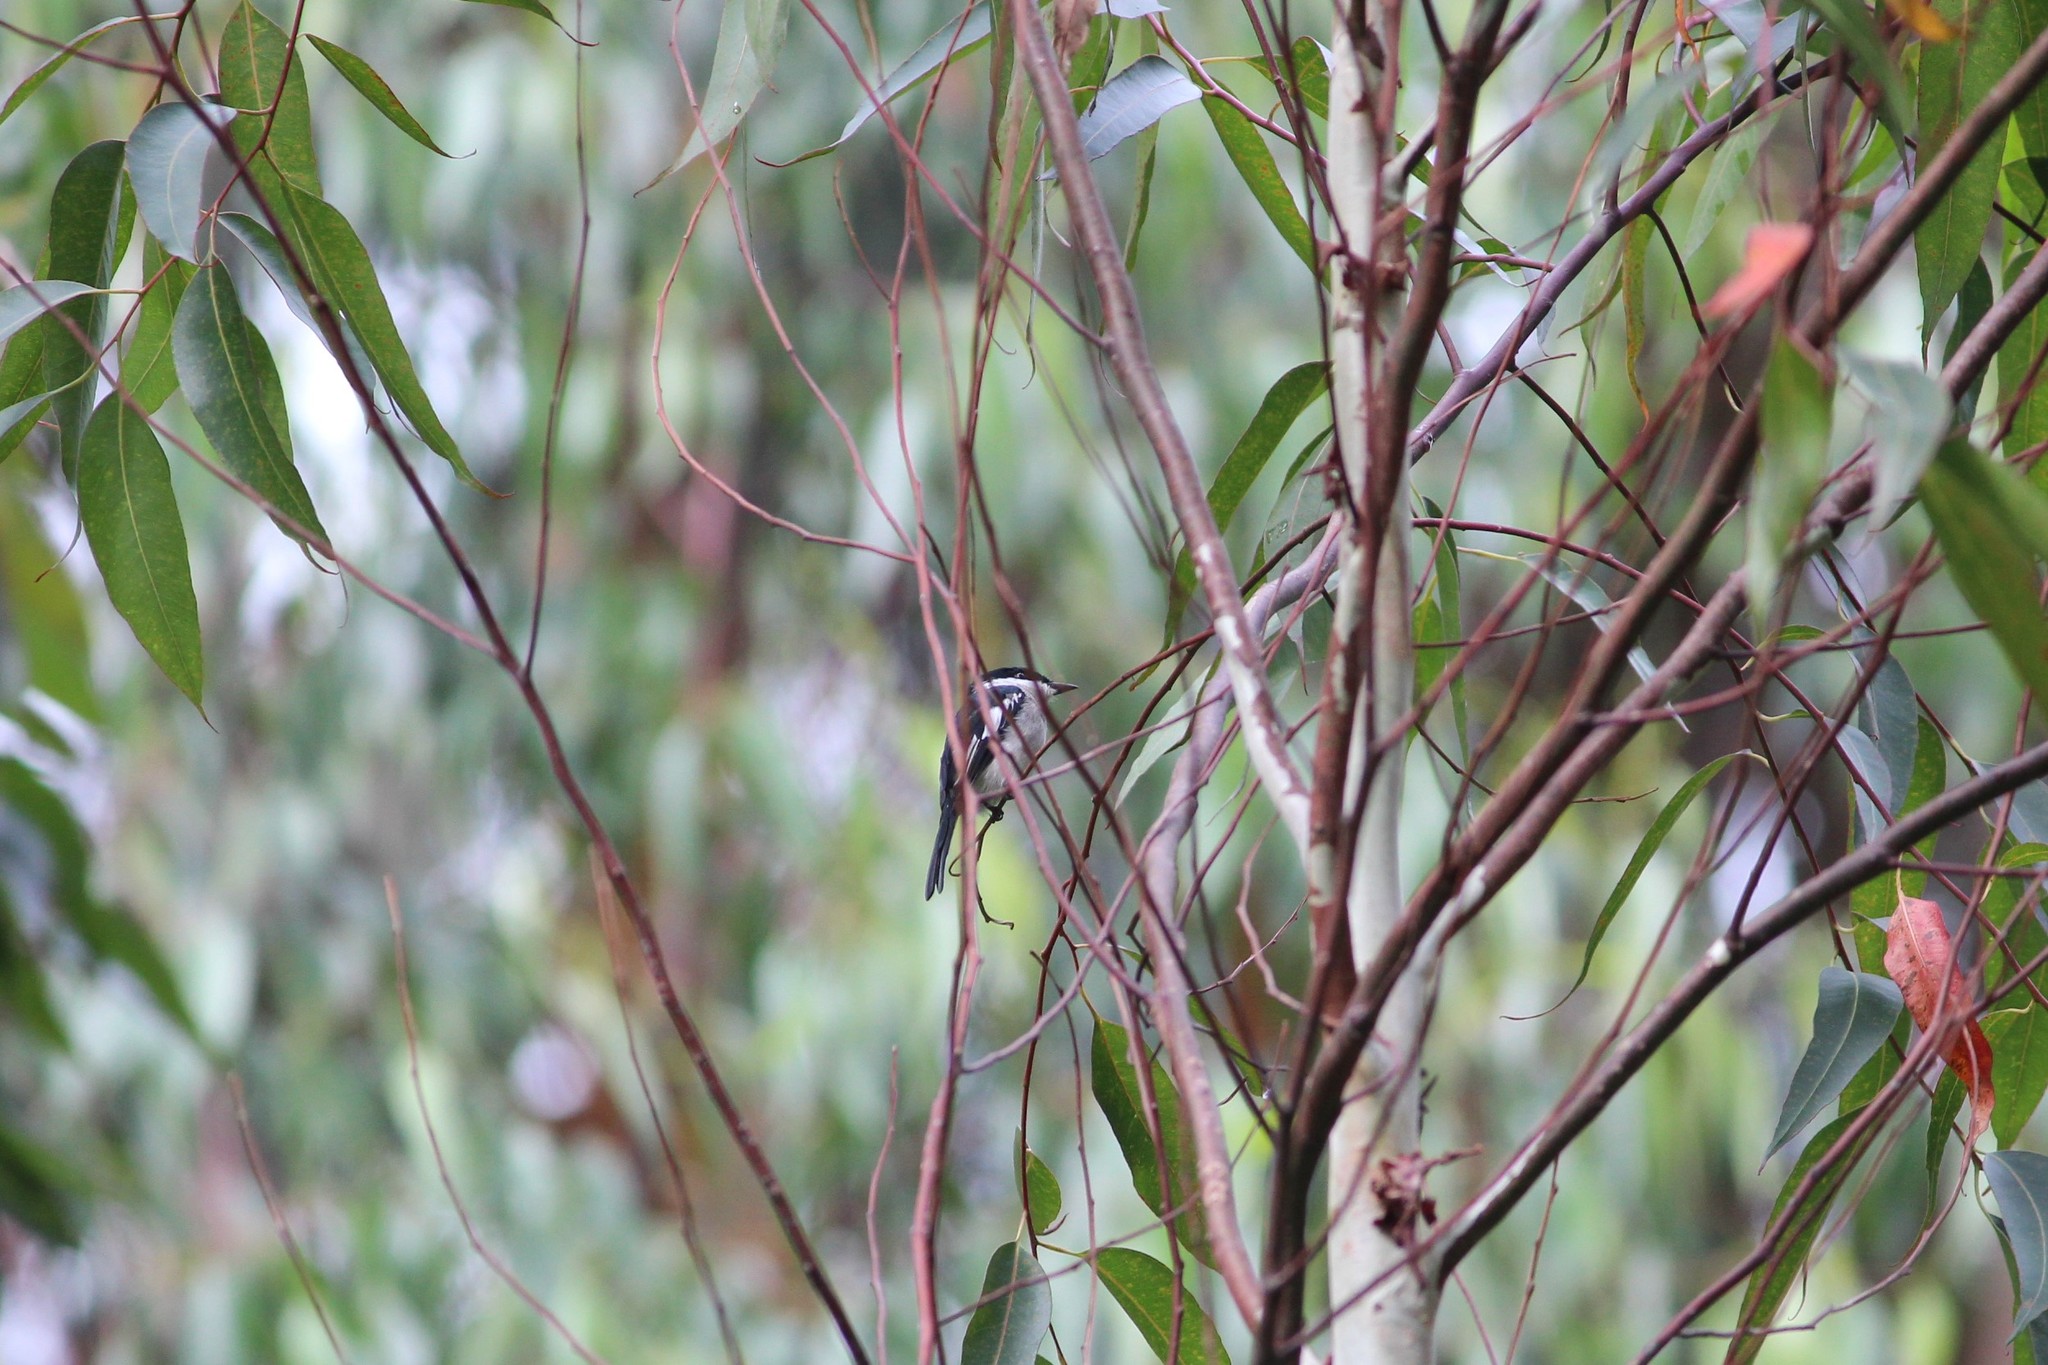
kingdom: Animalia
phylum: Chordata
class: Aves
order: Passeriformes
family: Tephrodornithidae
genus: Hemipus
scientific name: Hemipus picatus
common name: Bar-winged flycatcher-shrike
